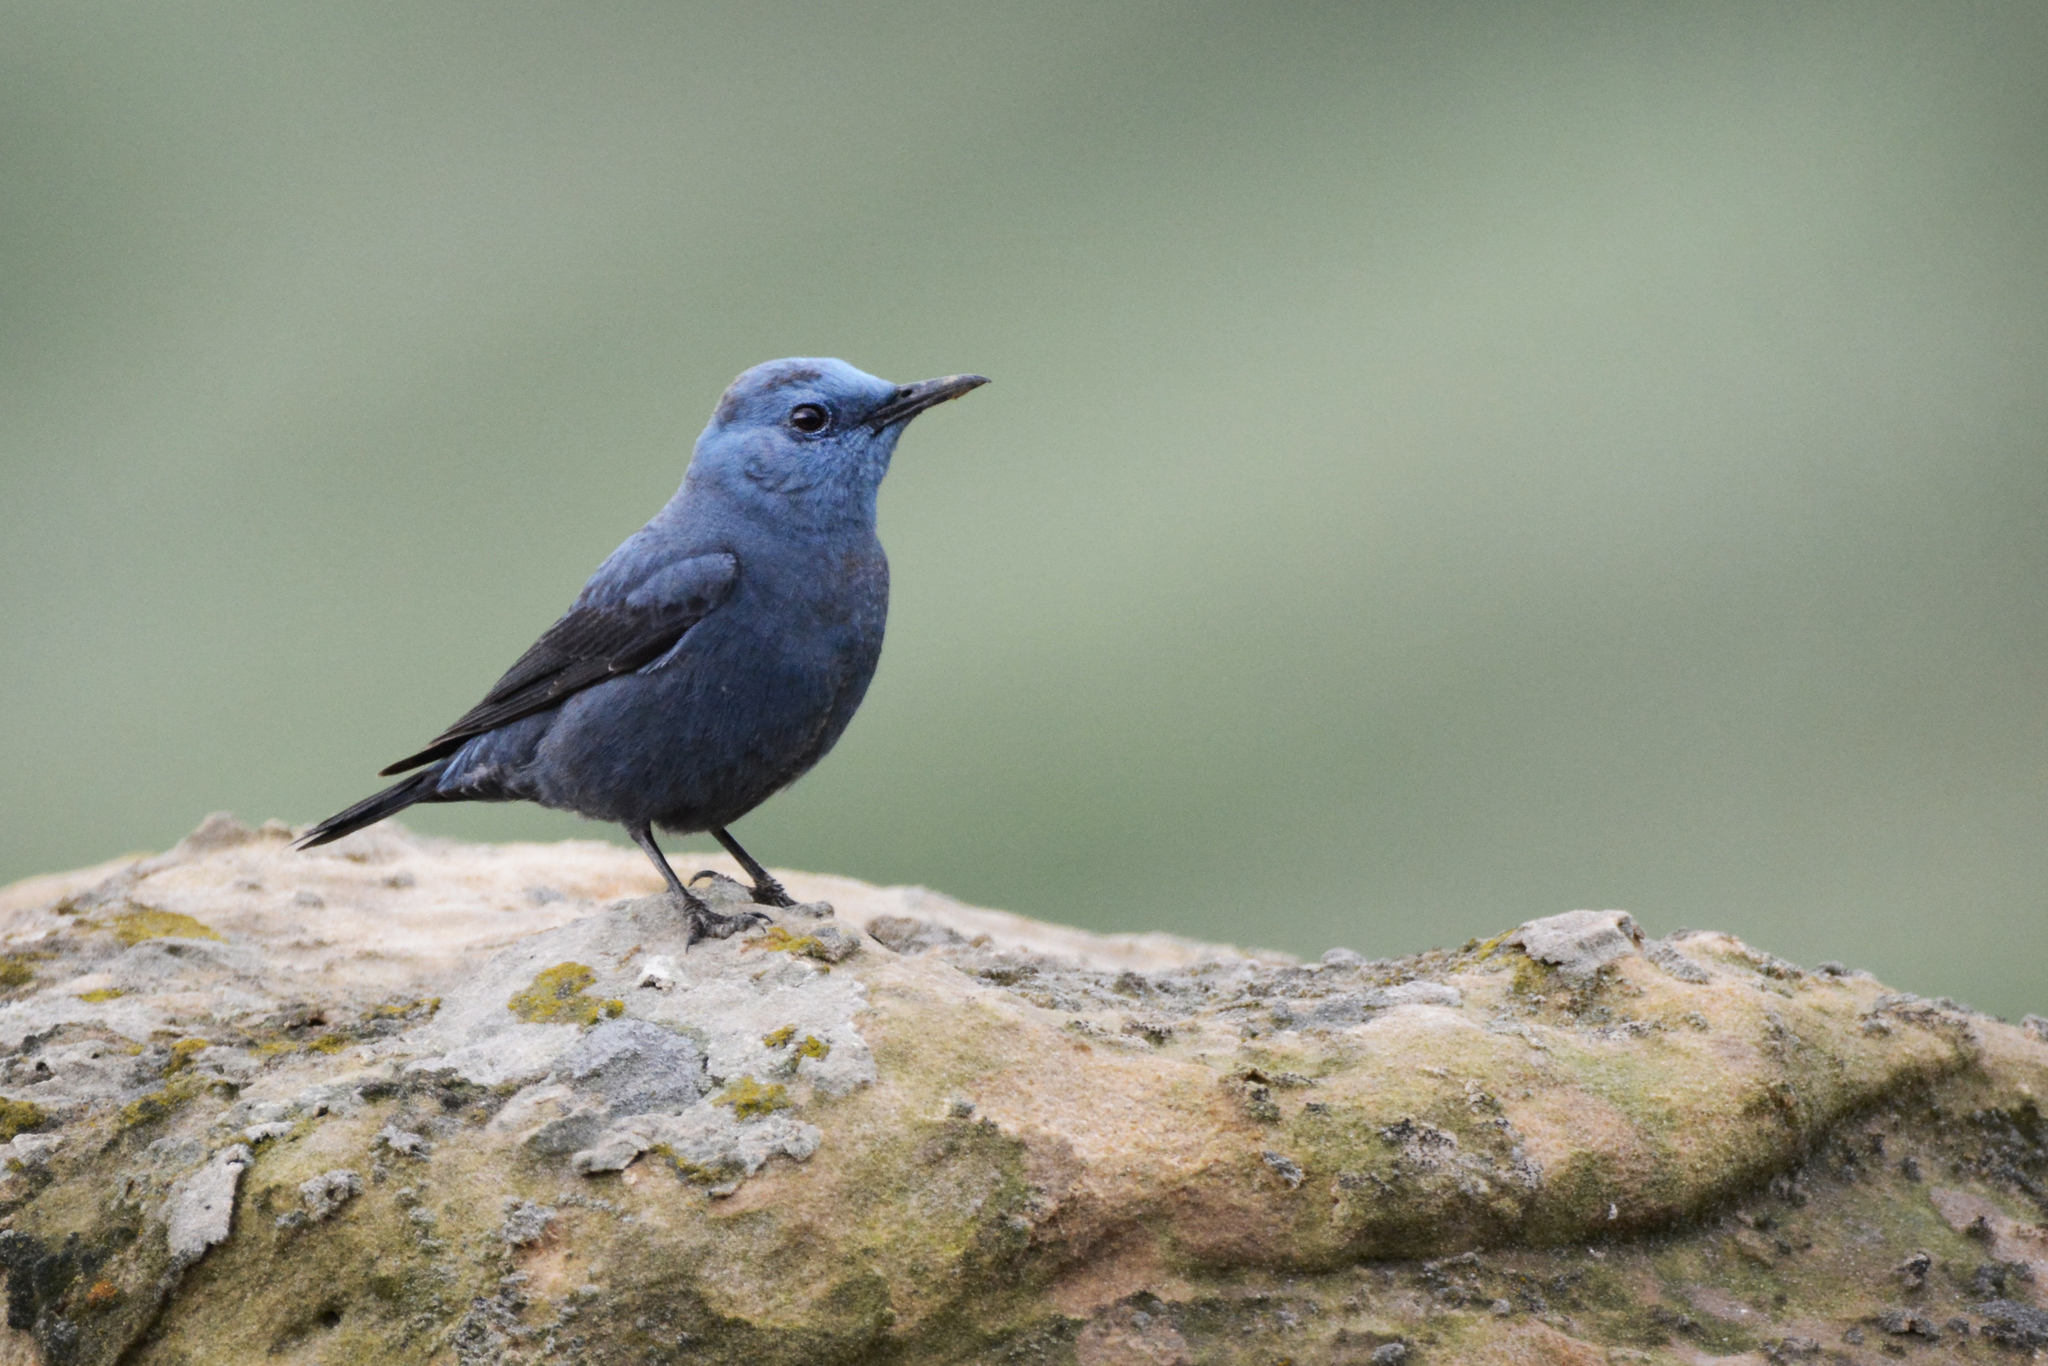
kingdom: Animalia
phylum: Chordata
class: Aves
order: Passeriformes
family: Muscicapidae
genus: Monticola
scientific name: Monticola solitarius
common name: Blue rock thrush
